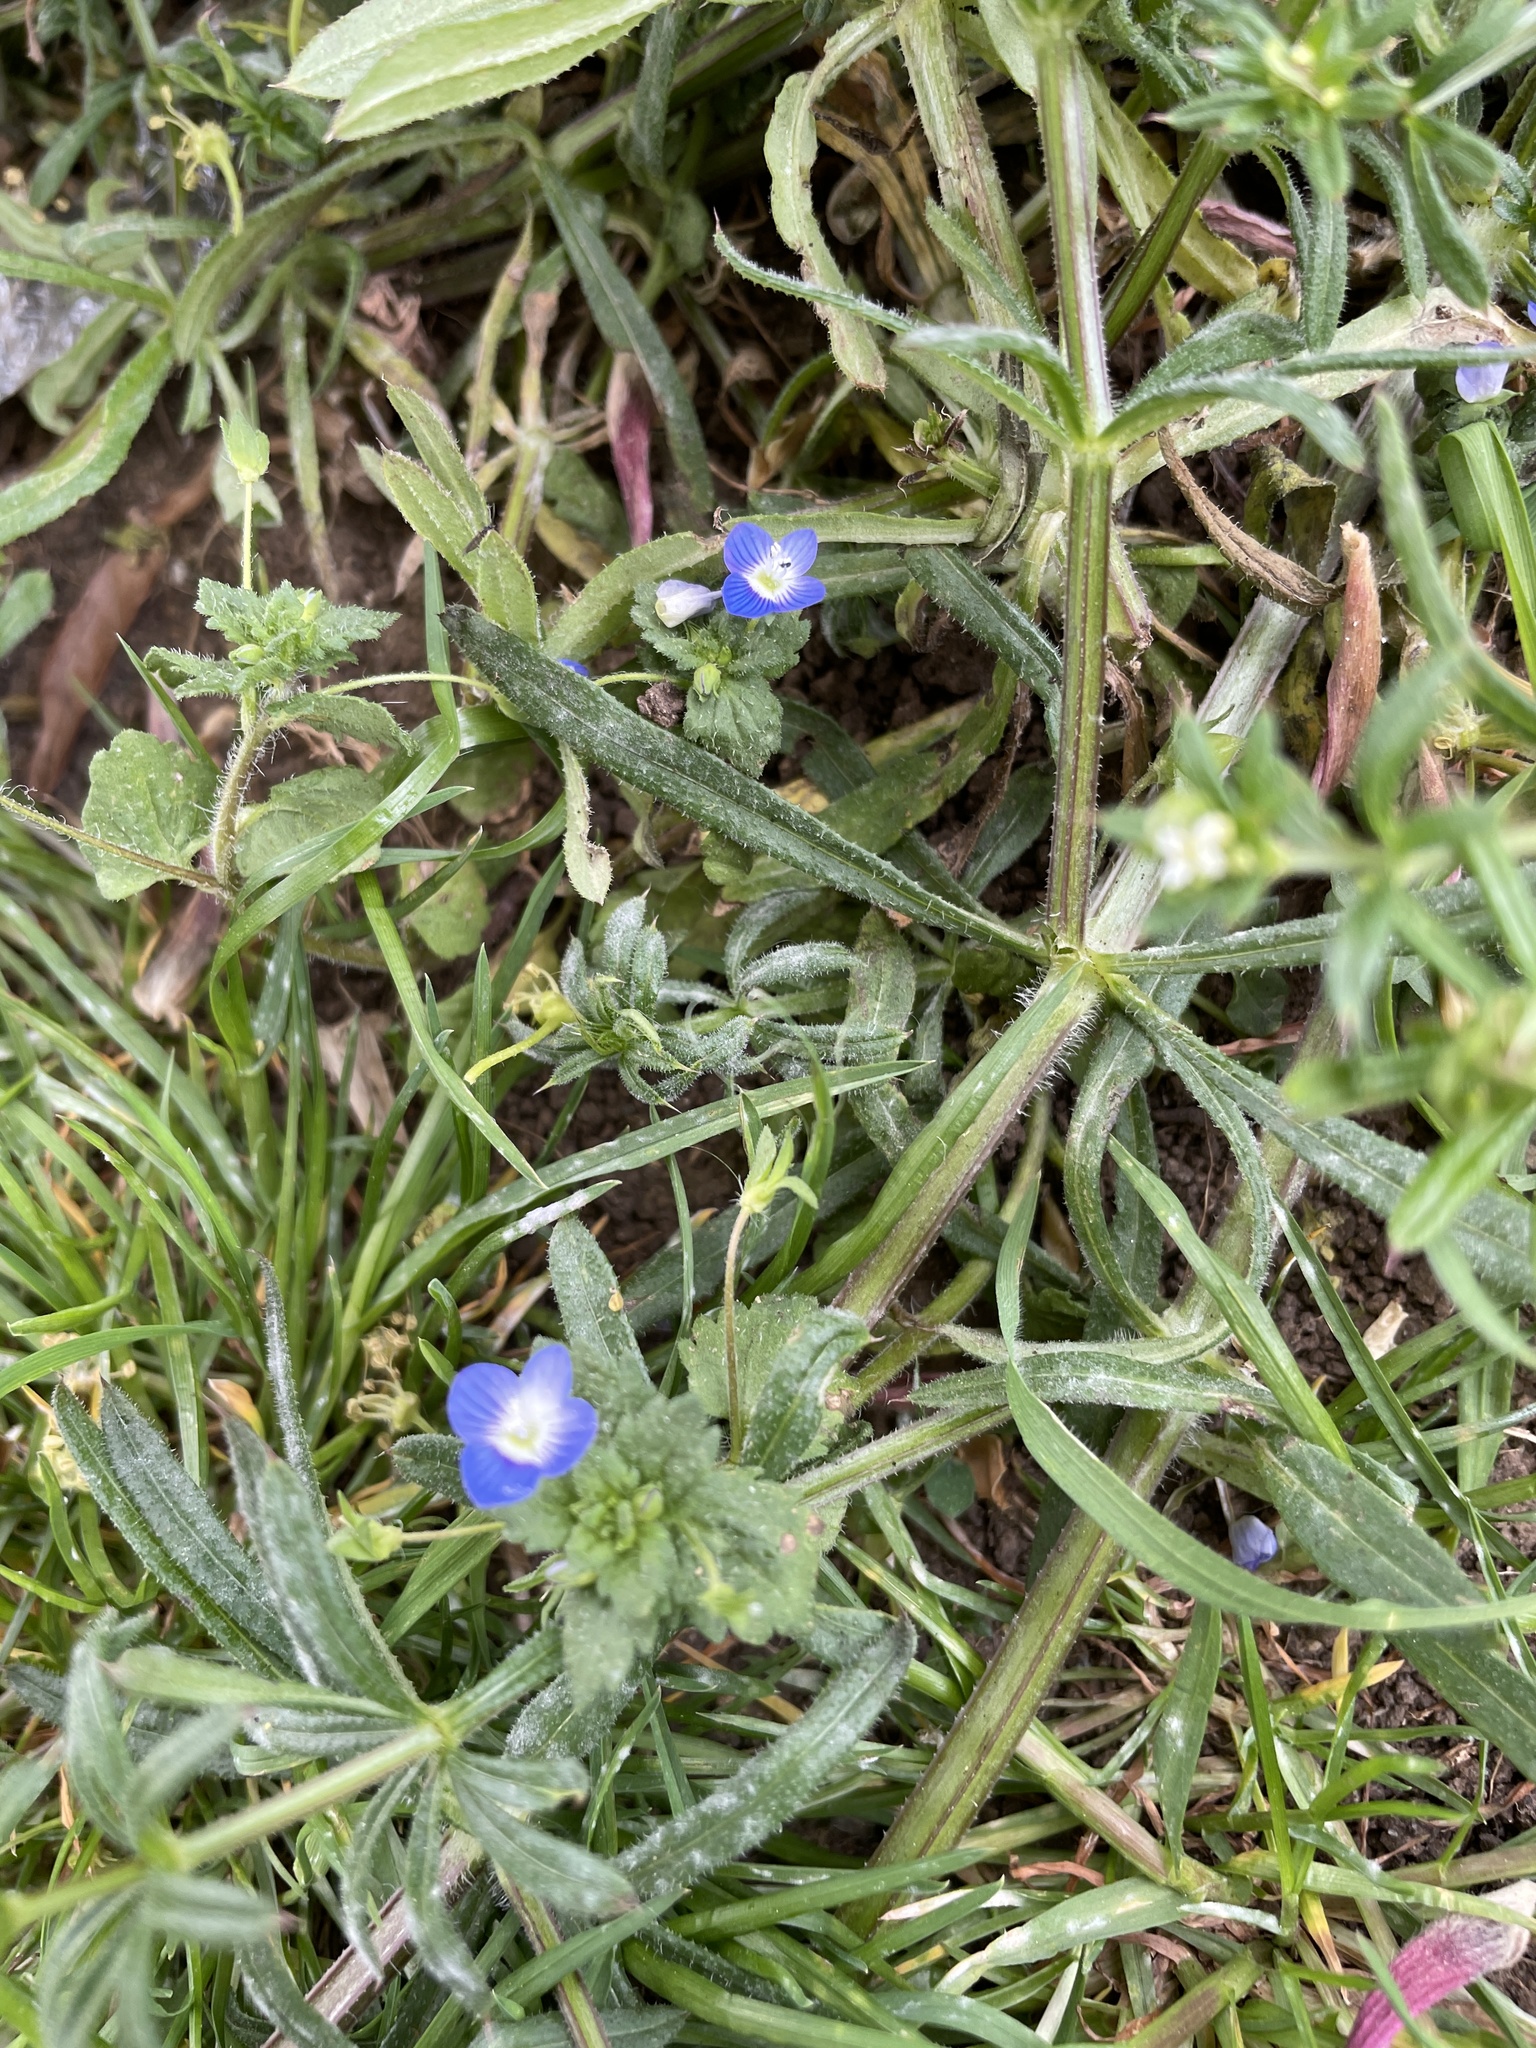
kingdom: Plantae
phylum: Tracheophyta
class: Magnoliopsida
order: Lamiales
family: Plantaginaceae
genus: Veronica
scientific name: Veronica persica
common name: Common field-speedwell
